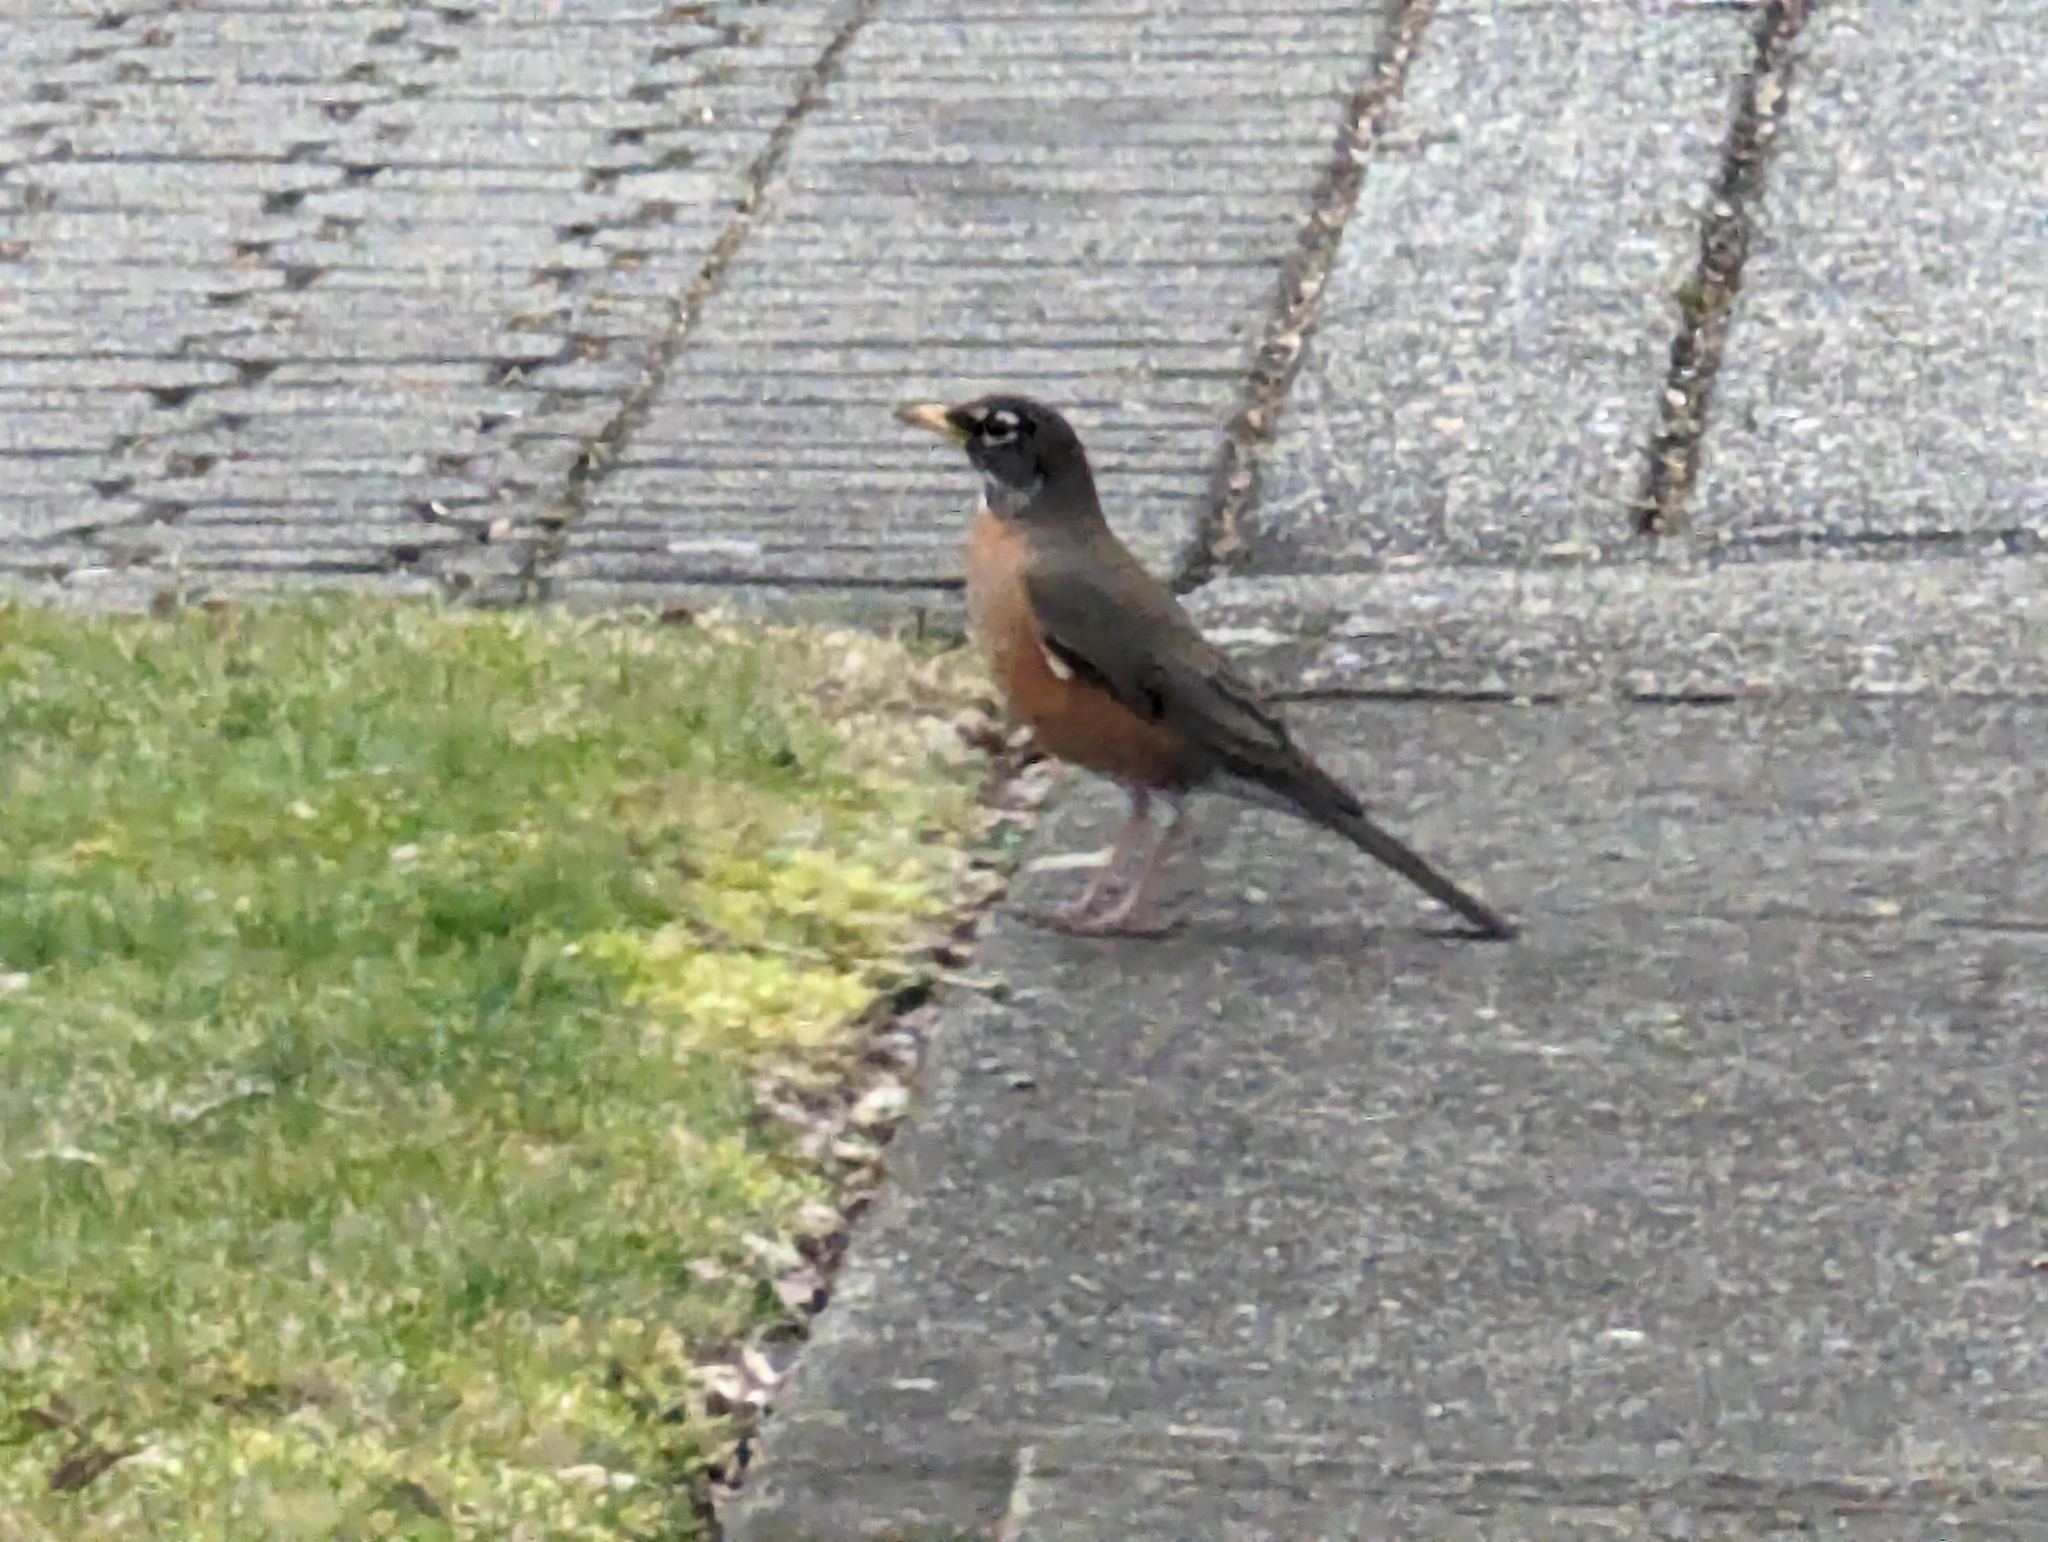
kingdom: Animalia
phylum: Chordata
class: Aves
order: Passeriformes
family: Turdidae
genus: Turdus
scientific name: Turdus migratorius
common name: American robin
